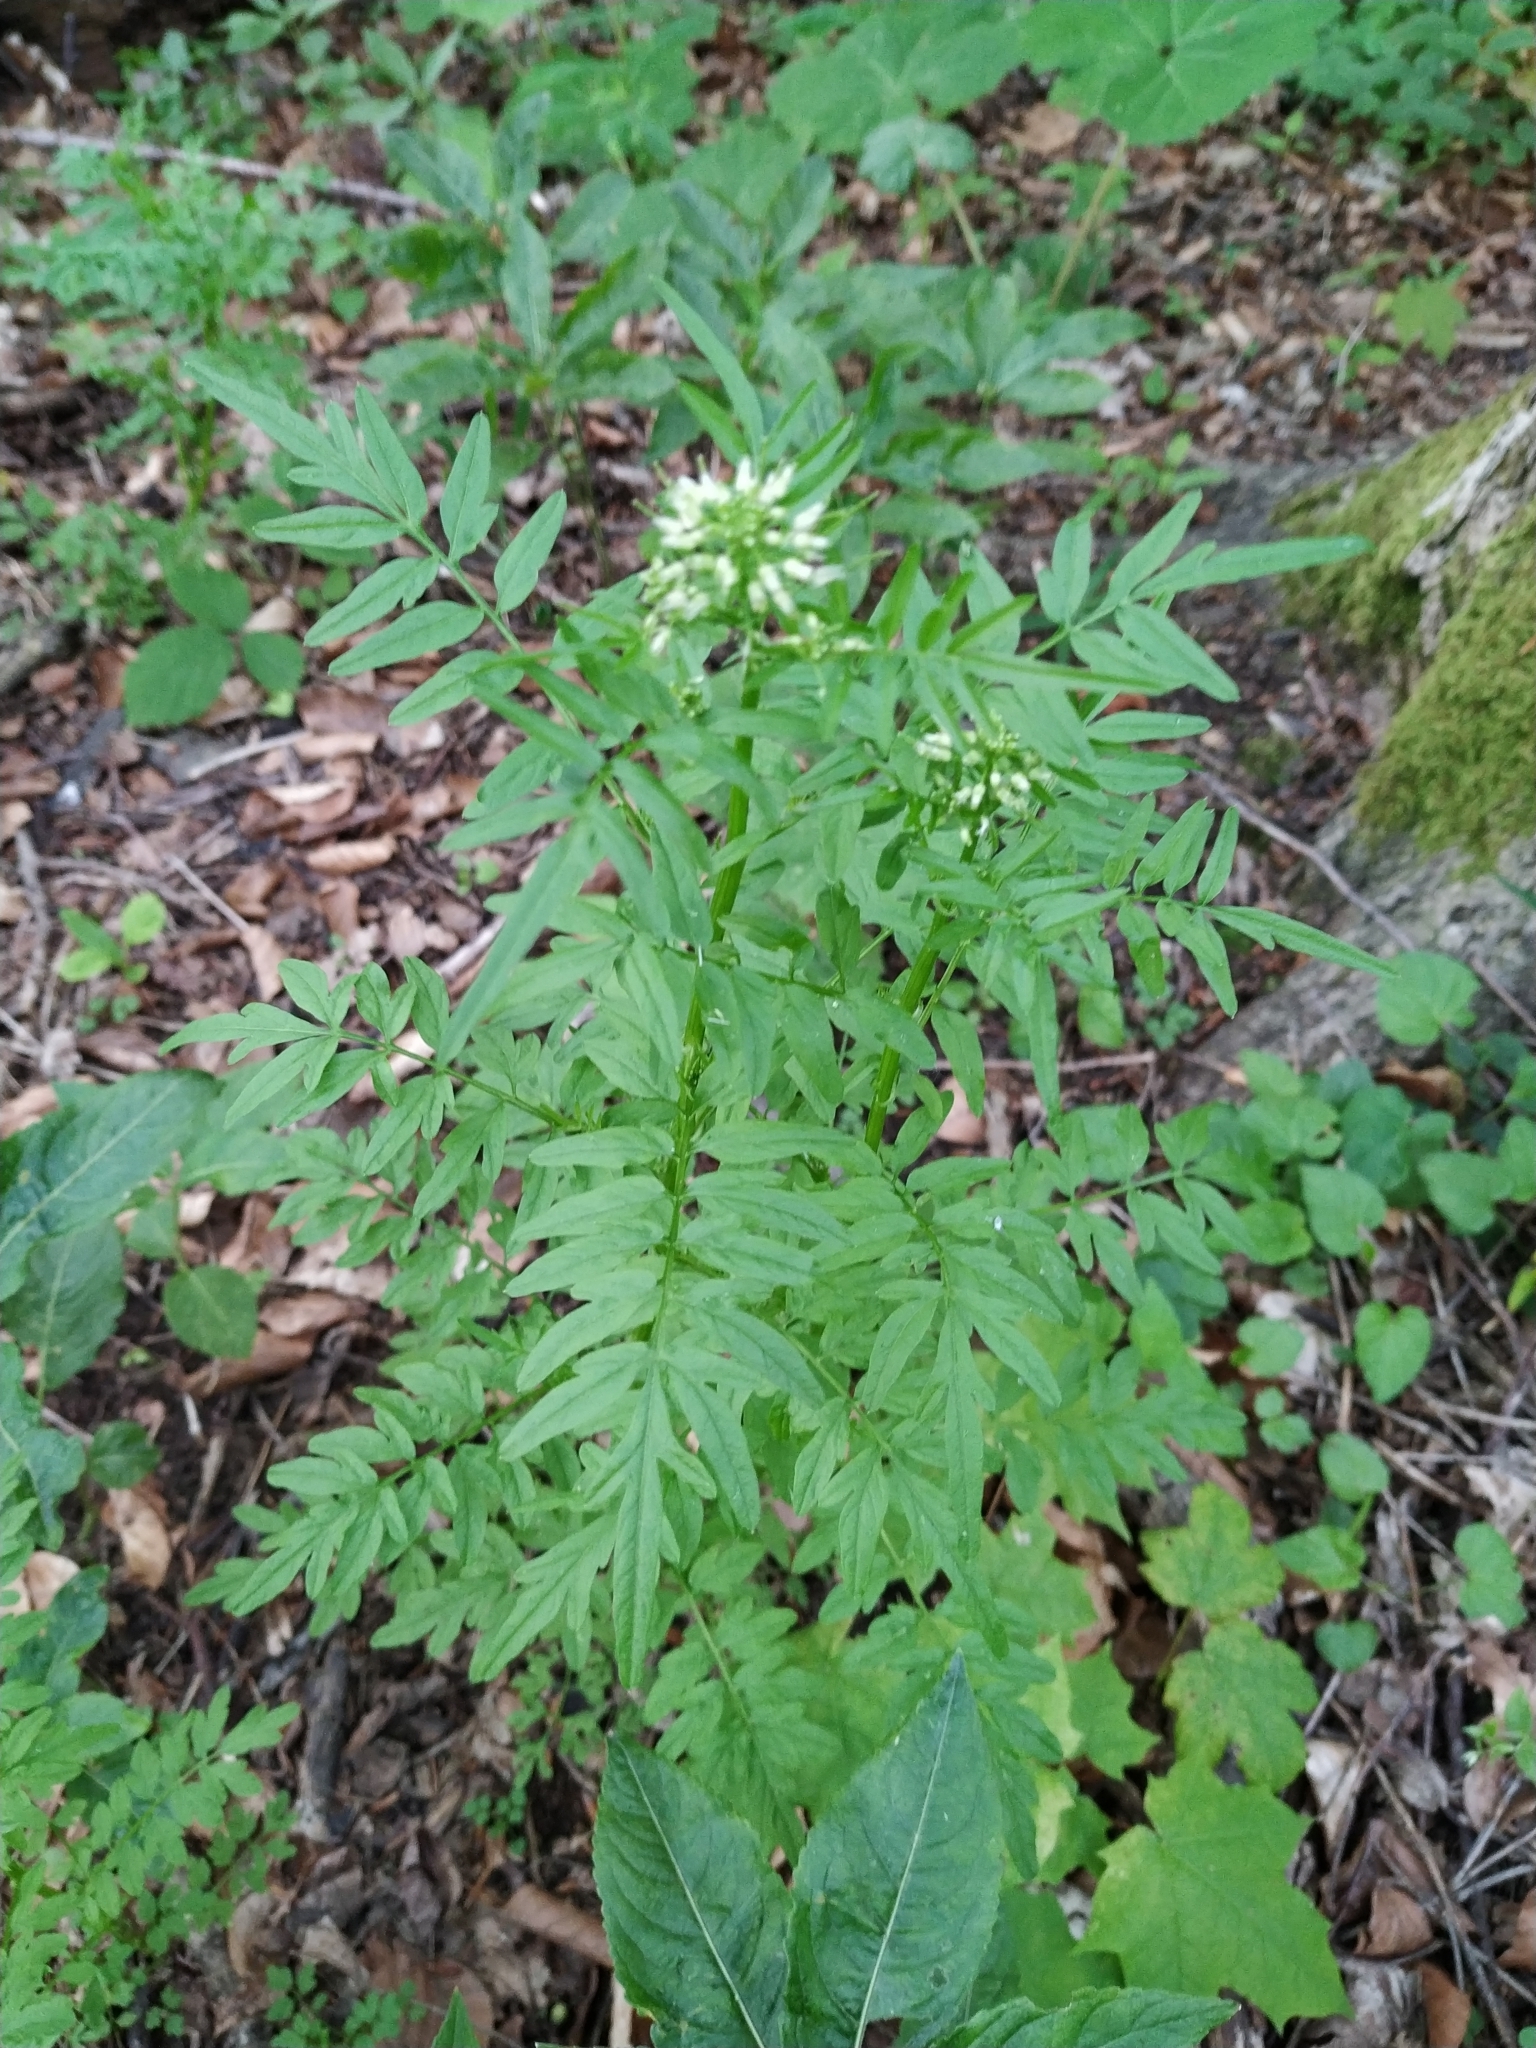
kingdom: Plantae
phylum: Tracheophyta
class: Magnoliopsida
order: Brassicales
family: Brassicaceae
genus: Cardamine
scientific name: Cardamine impatiens
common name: Narrow-leaved bitter-cress
